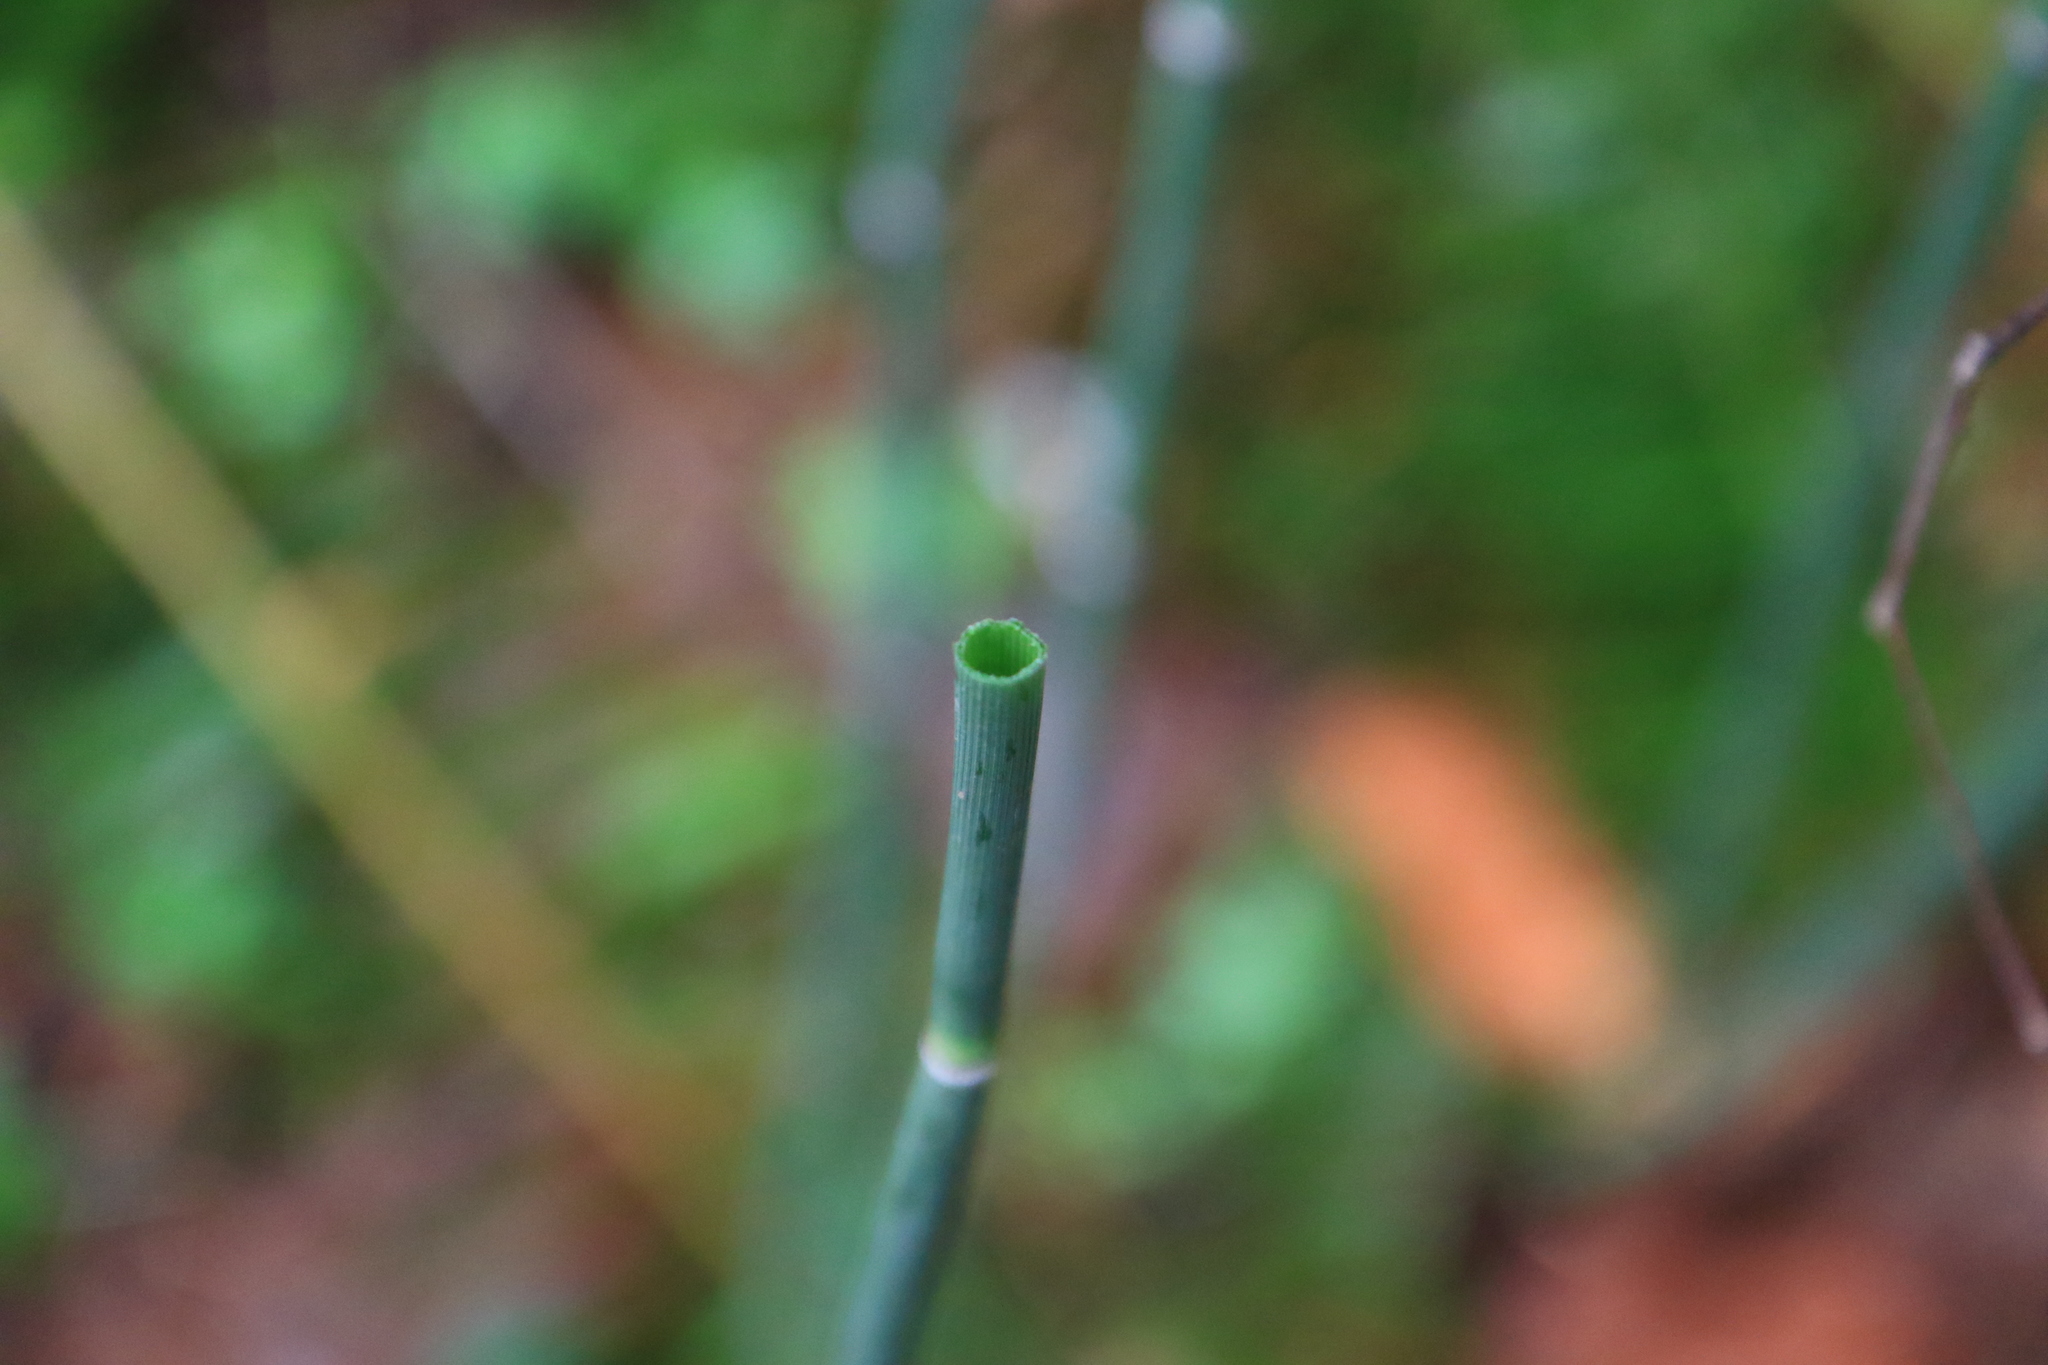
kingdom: Plantae
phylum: Tracheophyta
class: Polypodiopsida
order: Equisetales
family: Equisetaceae
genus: Equisetum
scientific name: Equisetum praealtum
